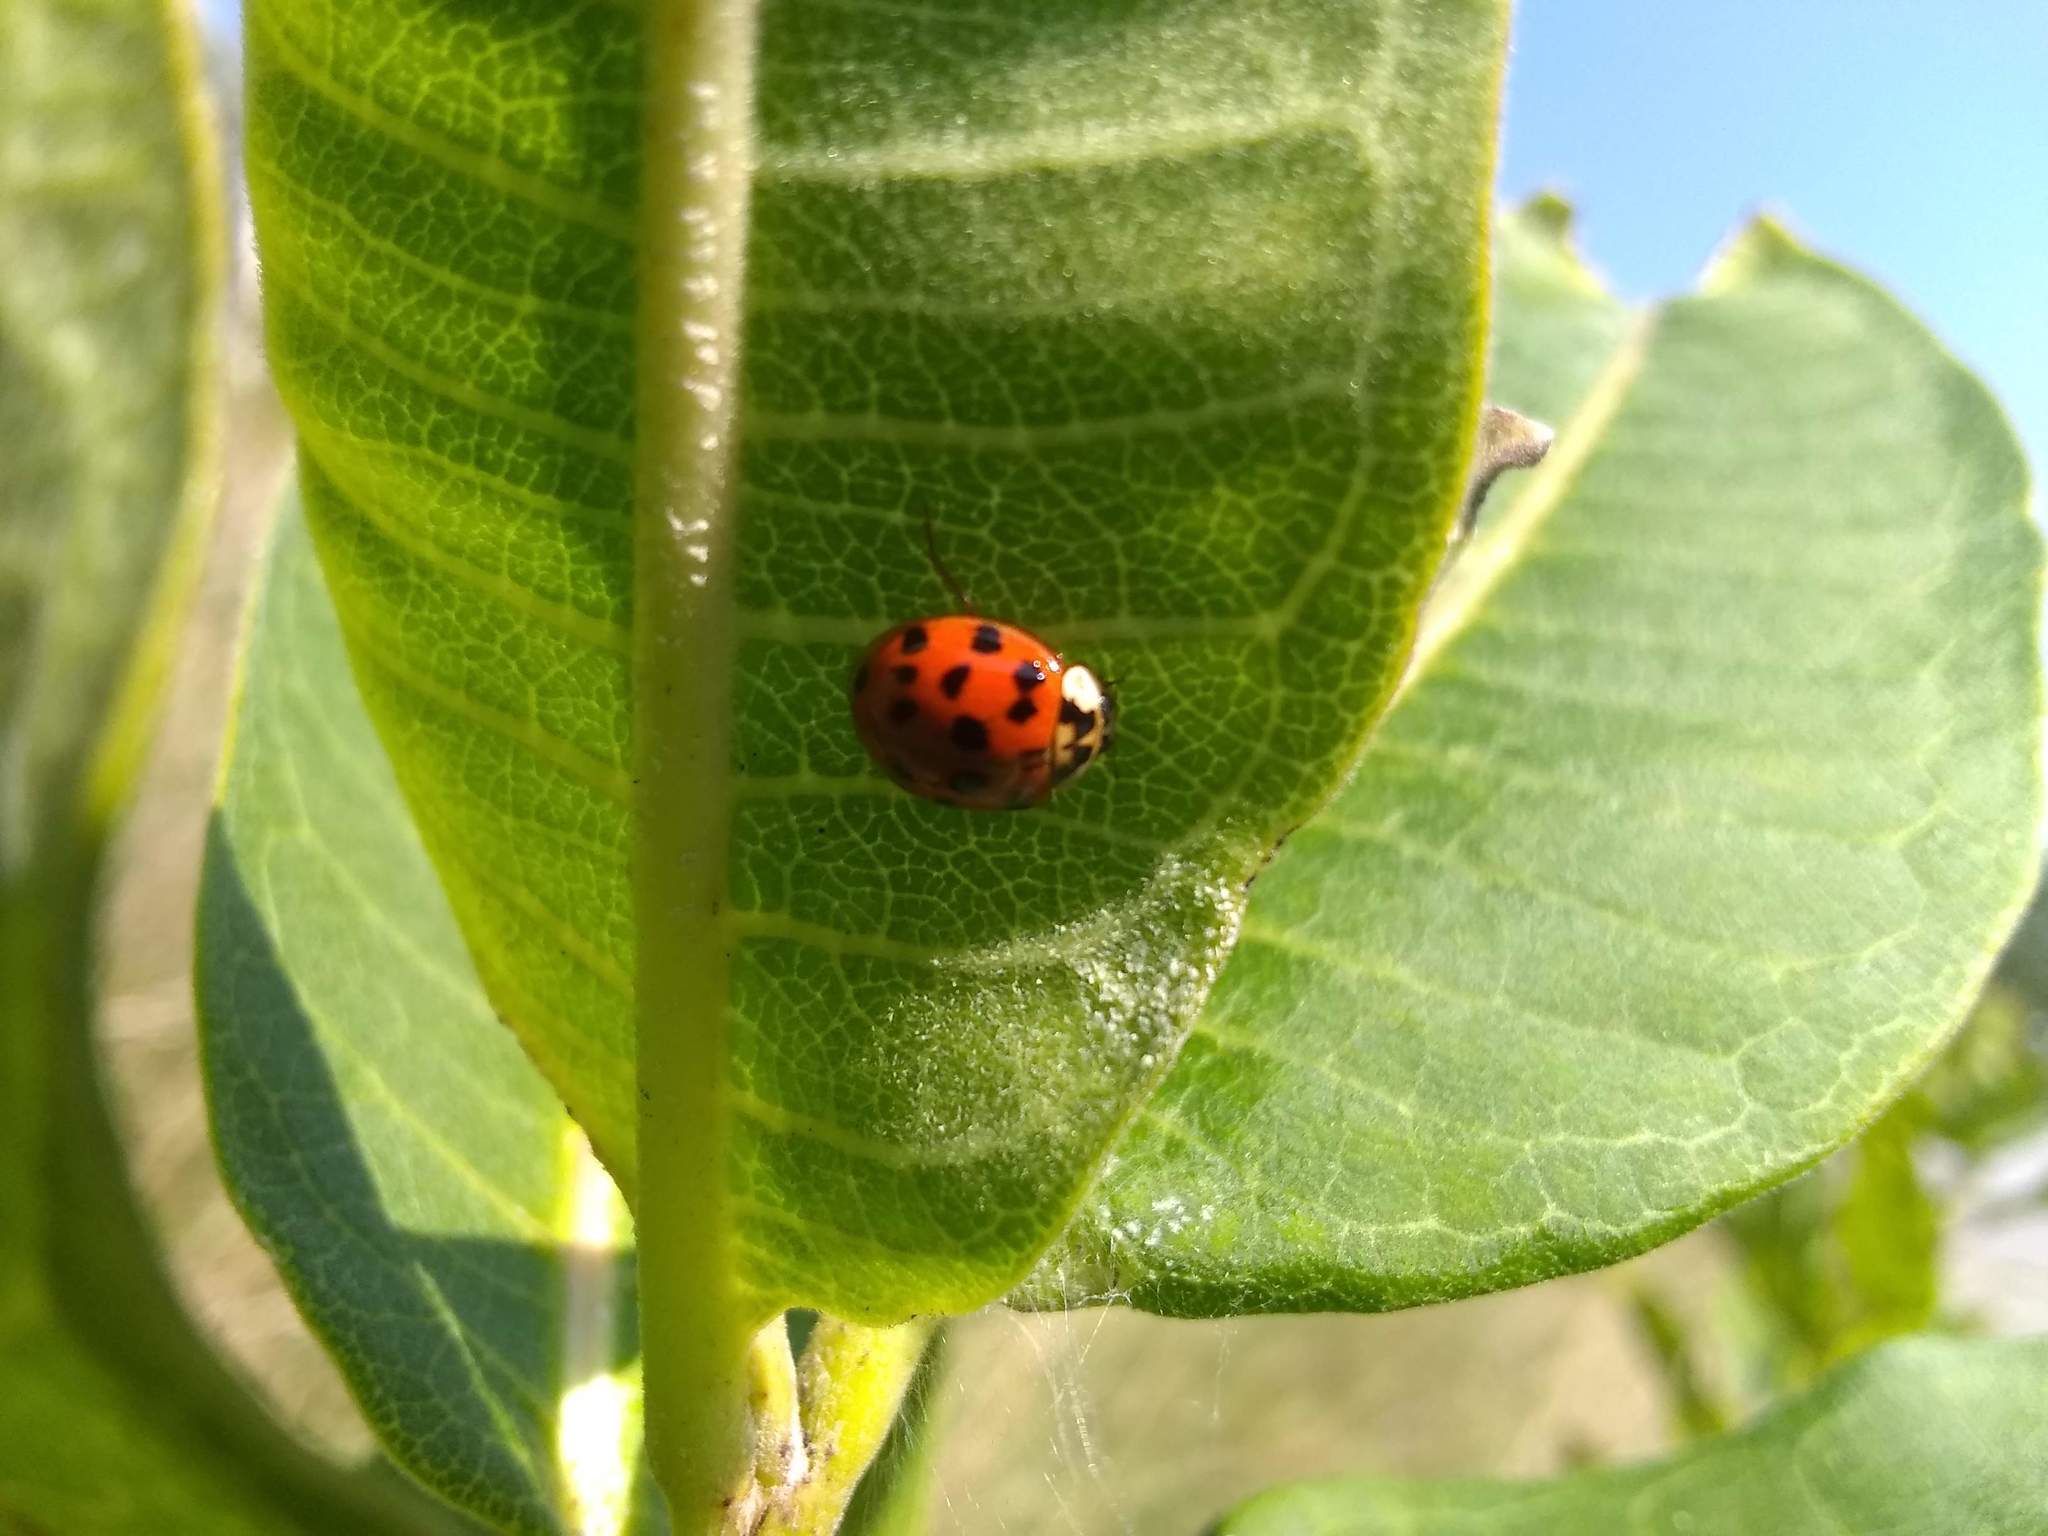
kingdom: Animalia
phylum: Arthropoda
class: Insecta
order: Coleoptera
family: Coccinellidae
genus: Harmonia
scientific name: Harmonia axyridis
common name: Harlequin ladybird
